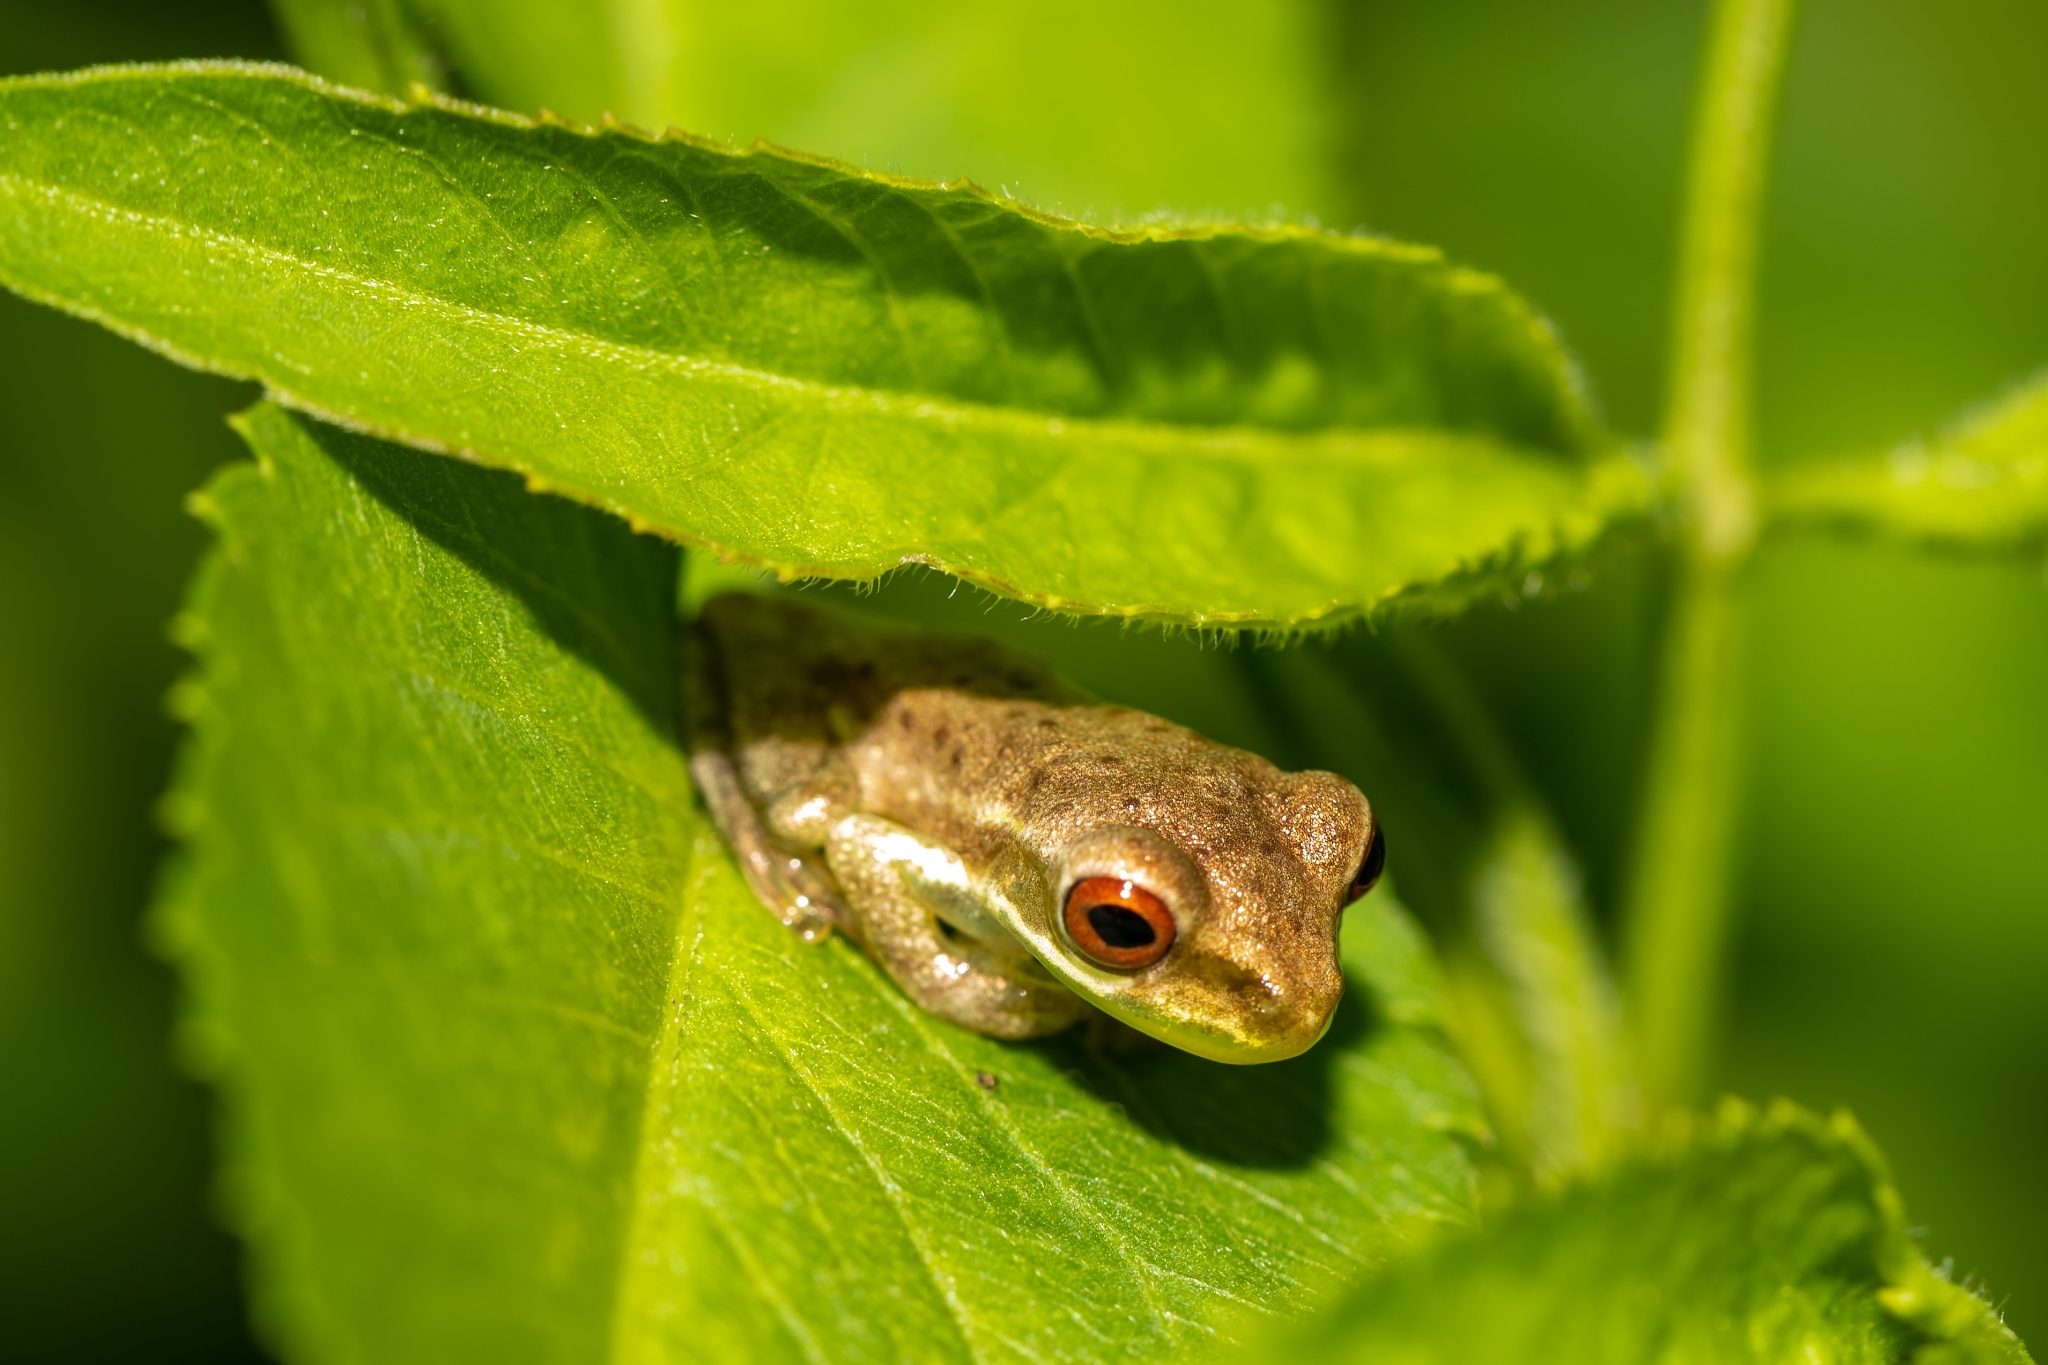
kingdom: Animalia
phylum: Chordata
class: Amphibia
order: Anura
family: Hylidae
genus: Osteopilus
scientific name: Osteopilus septentrionalis
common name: Cuban treefrog
